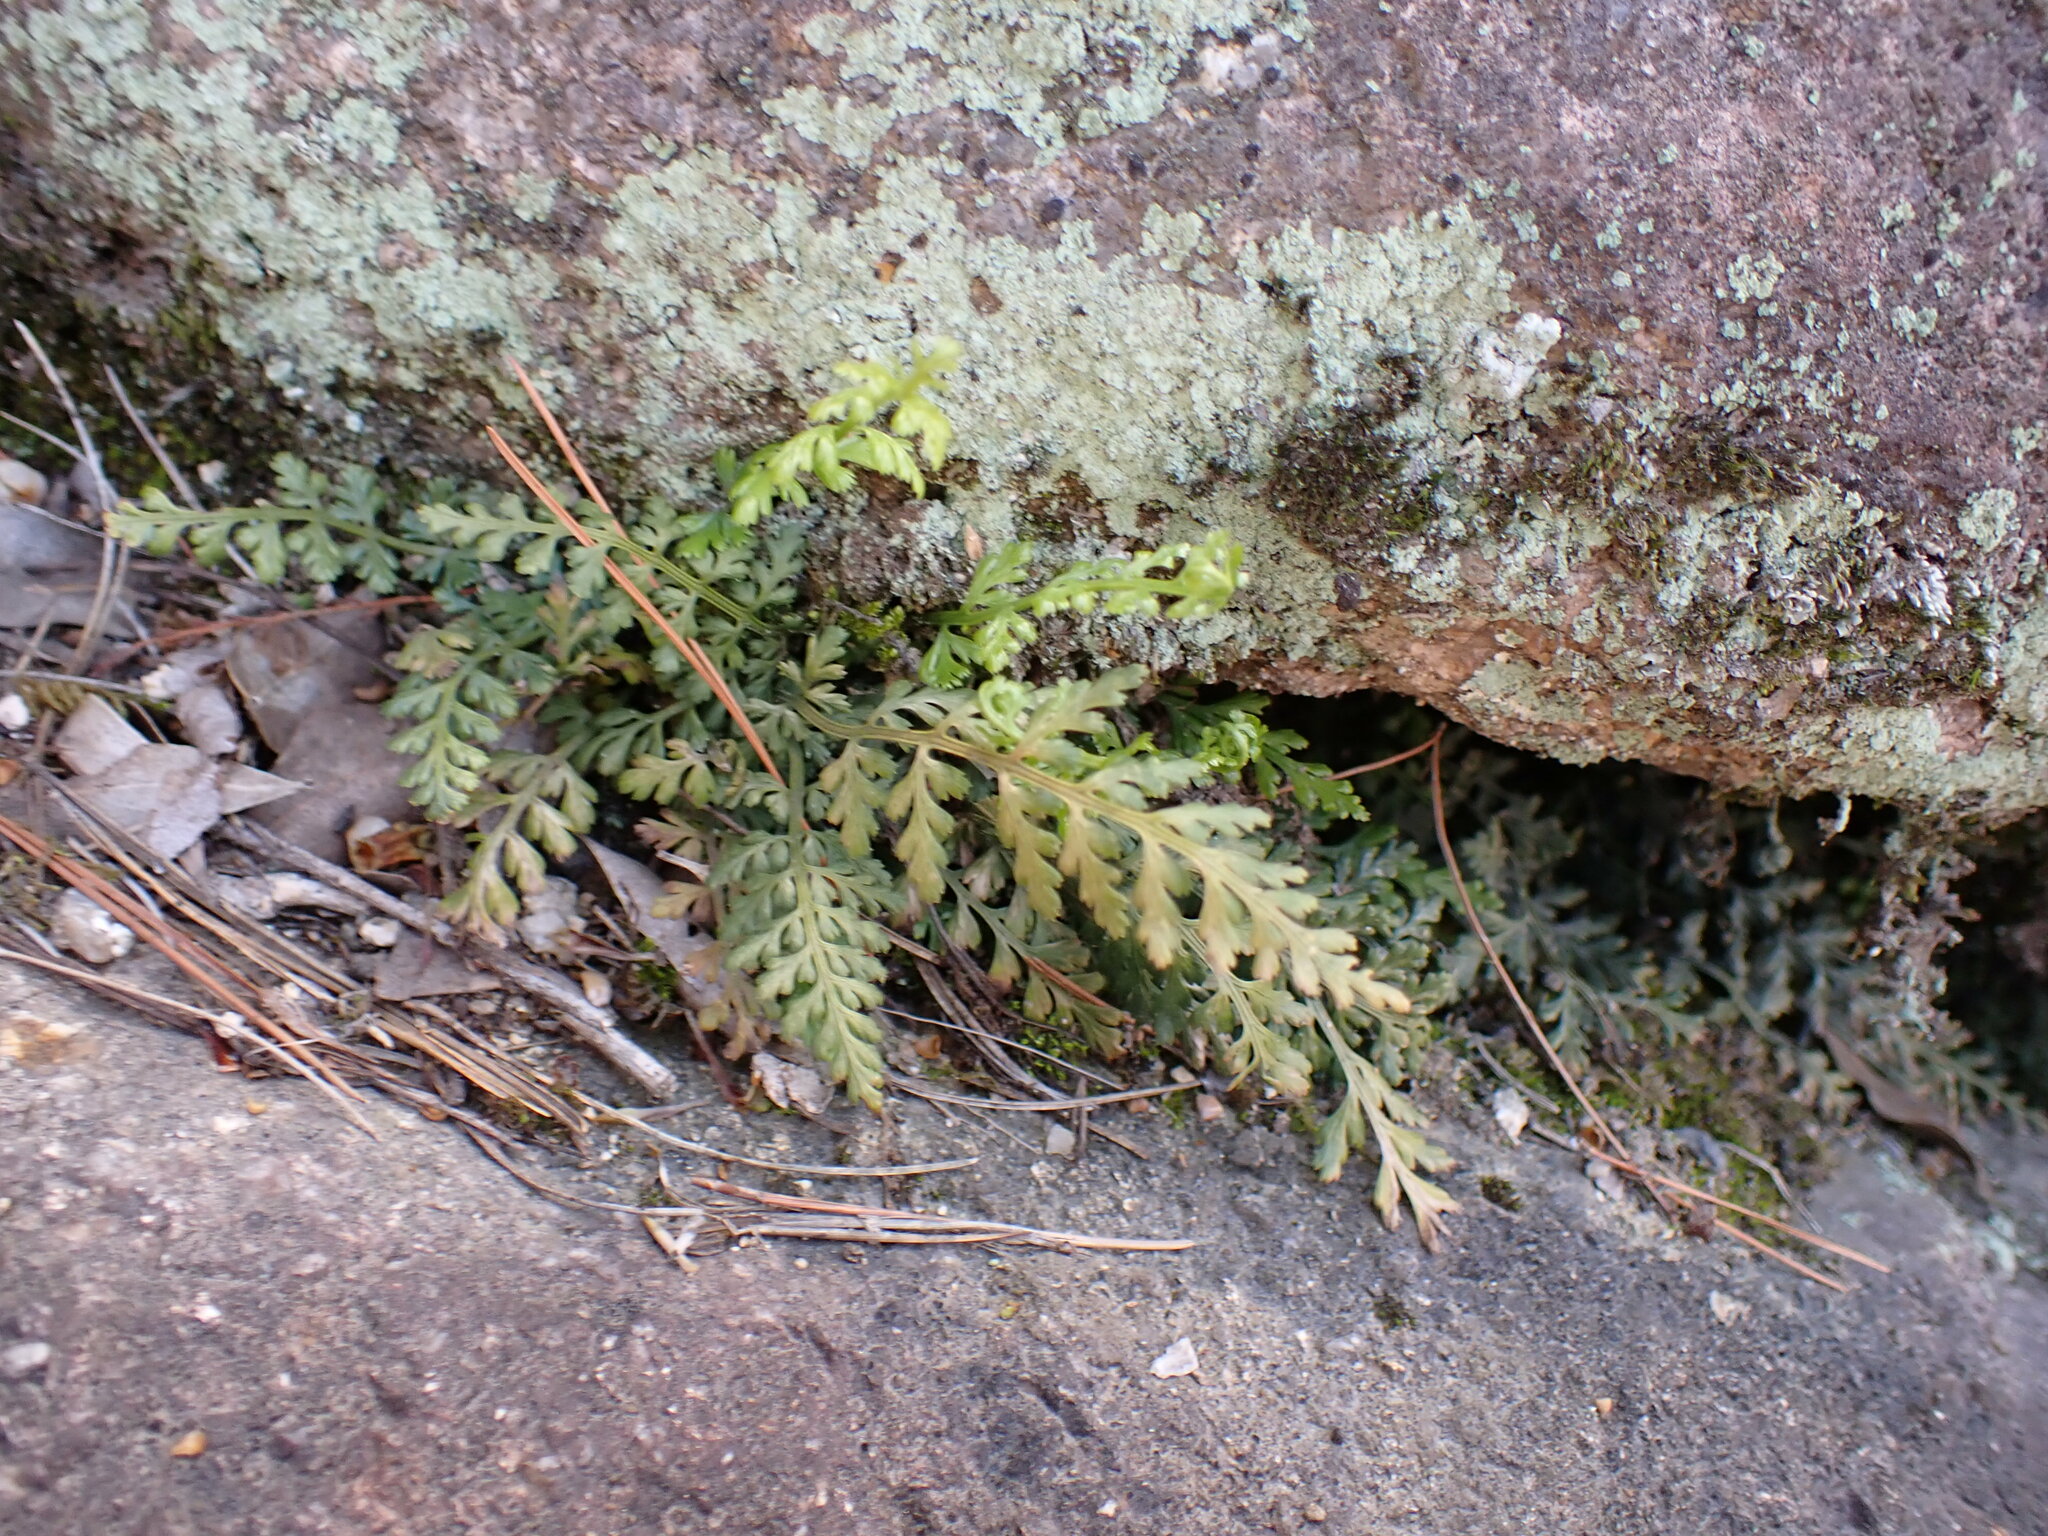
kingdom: Plantae
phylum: Tracheophyta
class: Polypodiopsida
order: Polypodiales
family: Aspleniaceae
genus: Asplenium
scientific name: Asplenium anogrammoides
